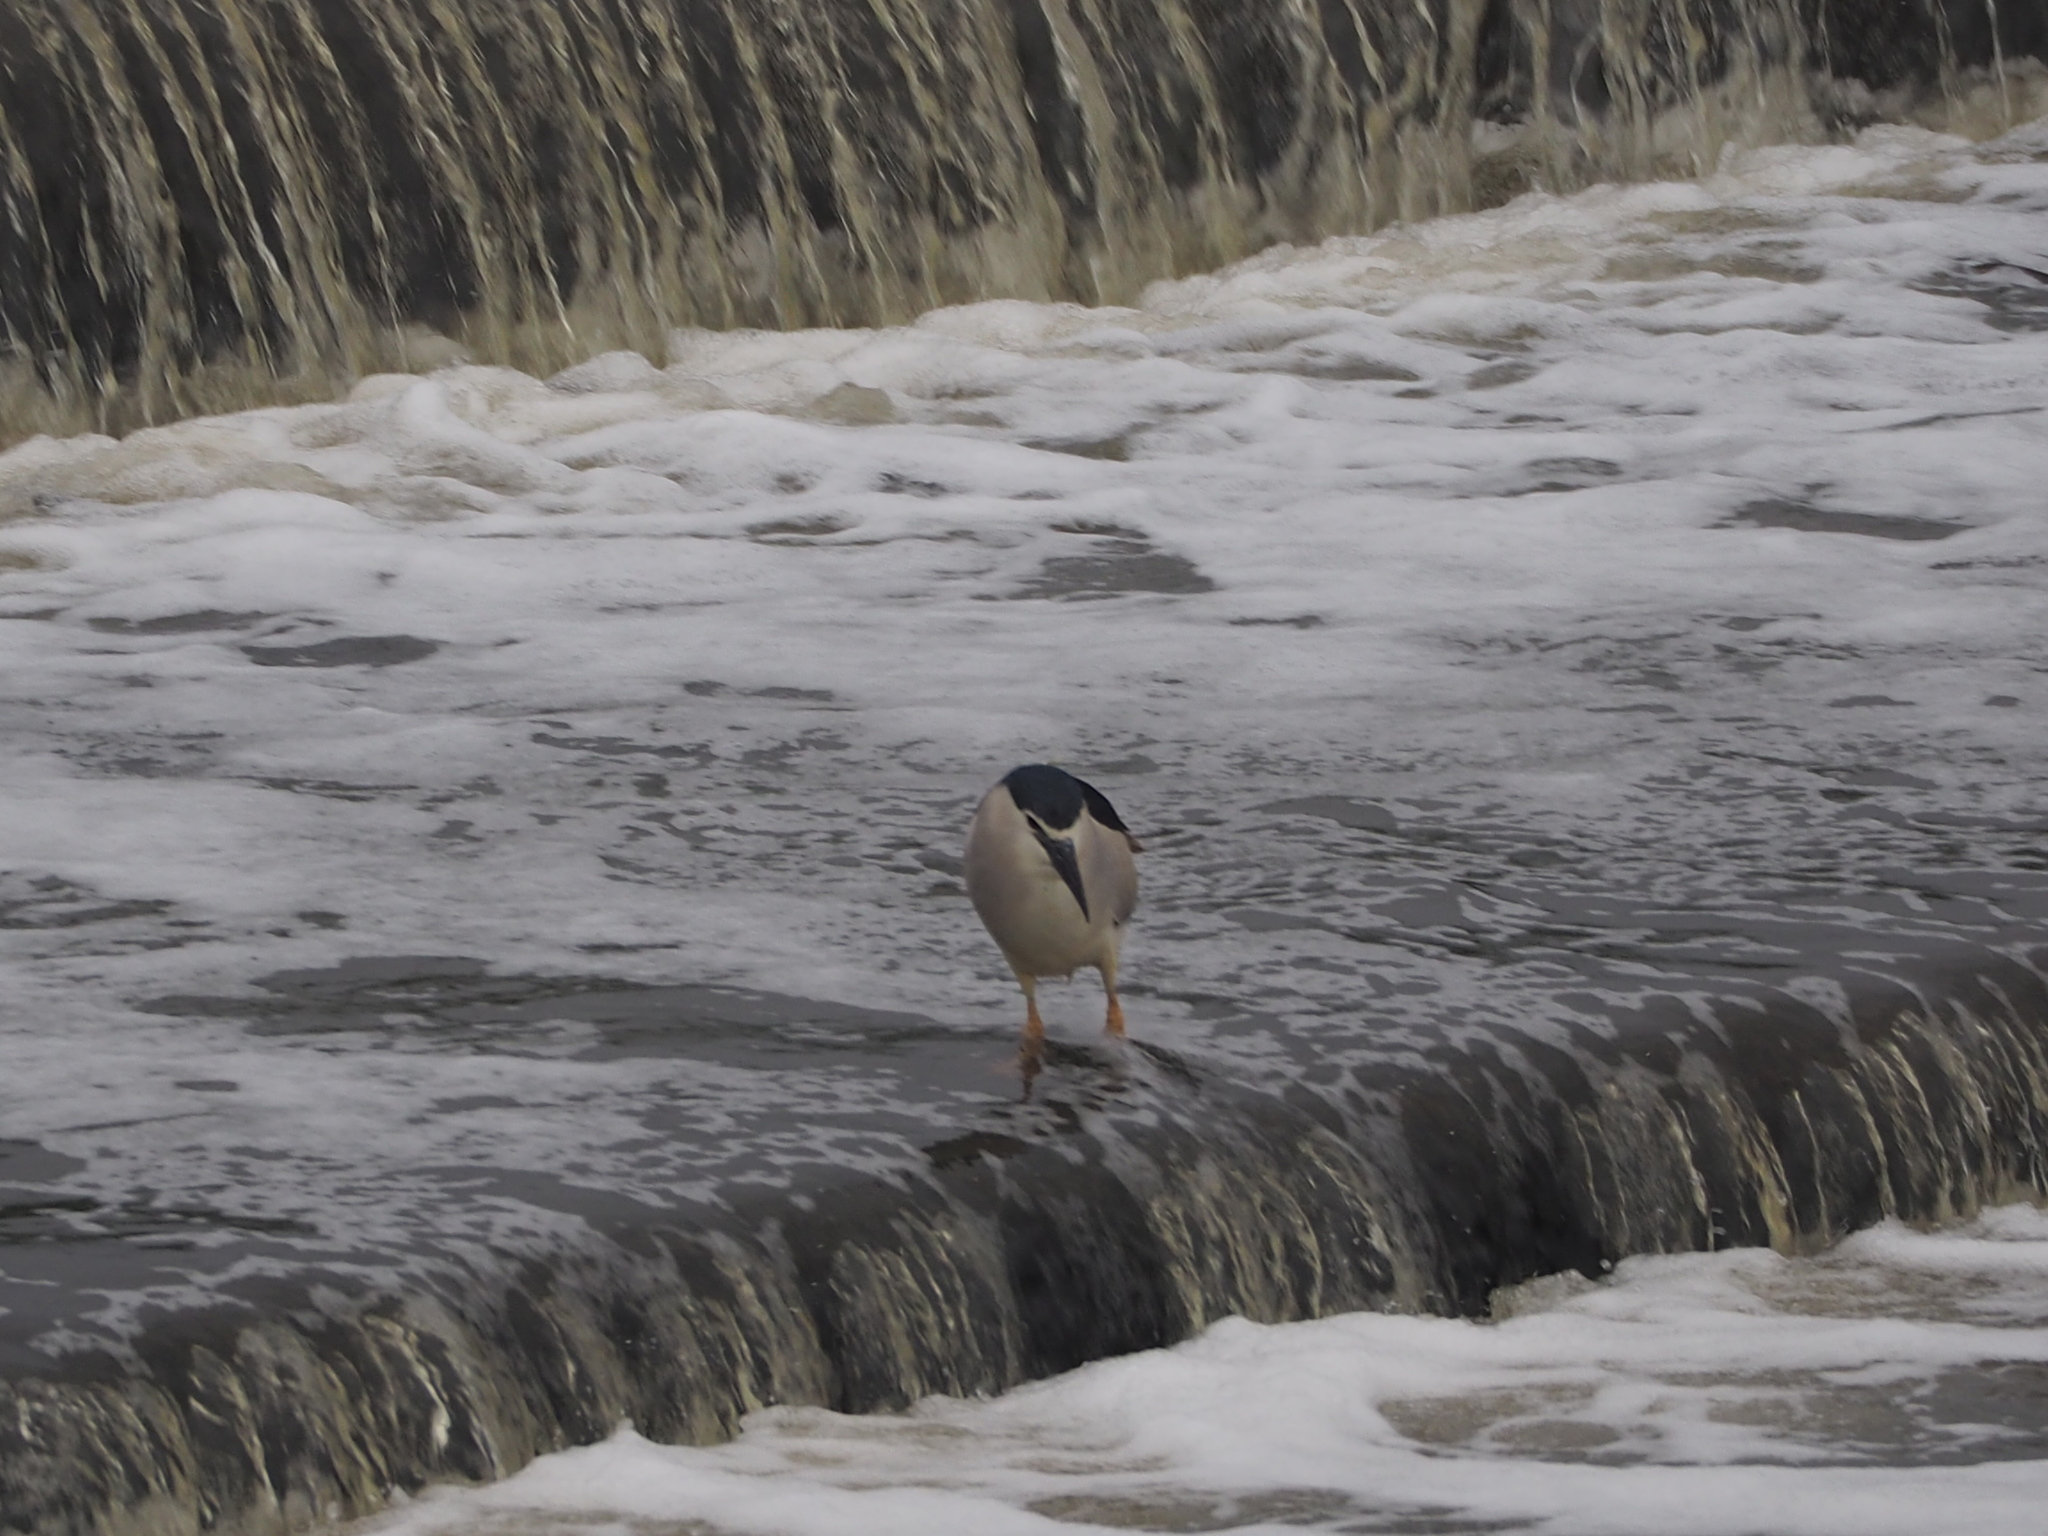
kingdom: Animalia
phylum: Chordata
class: Aves
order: Pelecaniformes
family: Ardeidae
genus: Nycticorax
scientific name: Nycticorax nycticorax
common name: Black-crowned night heron
